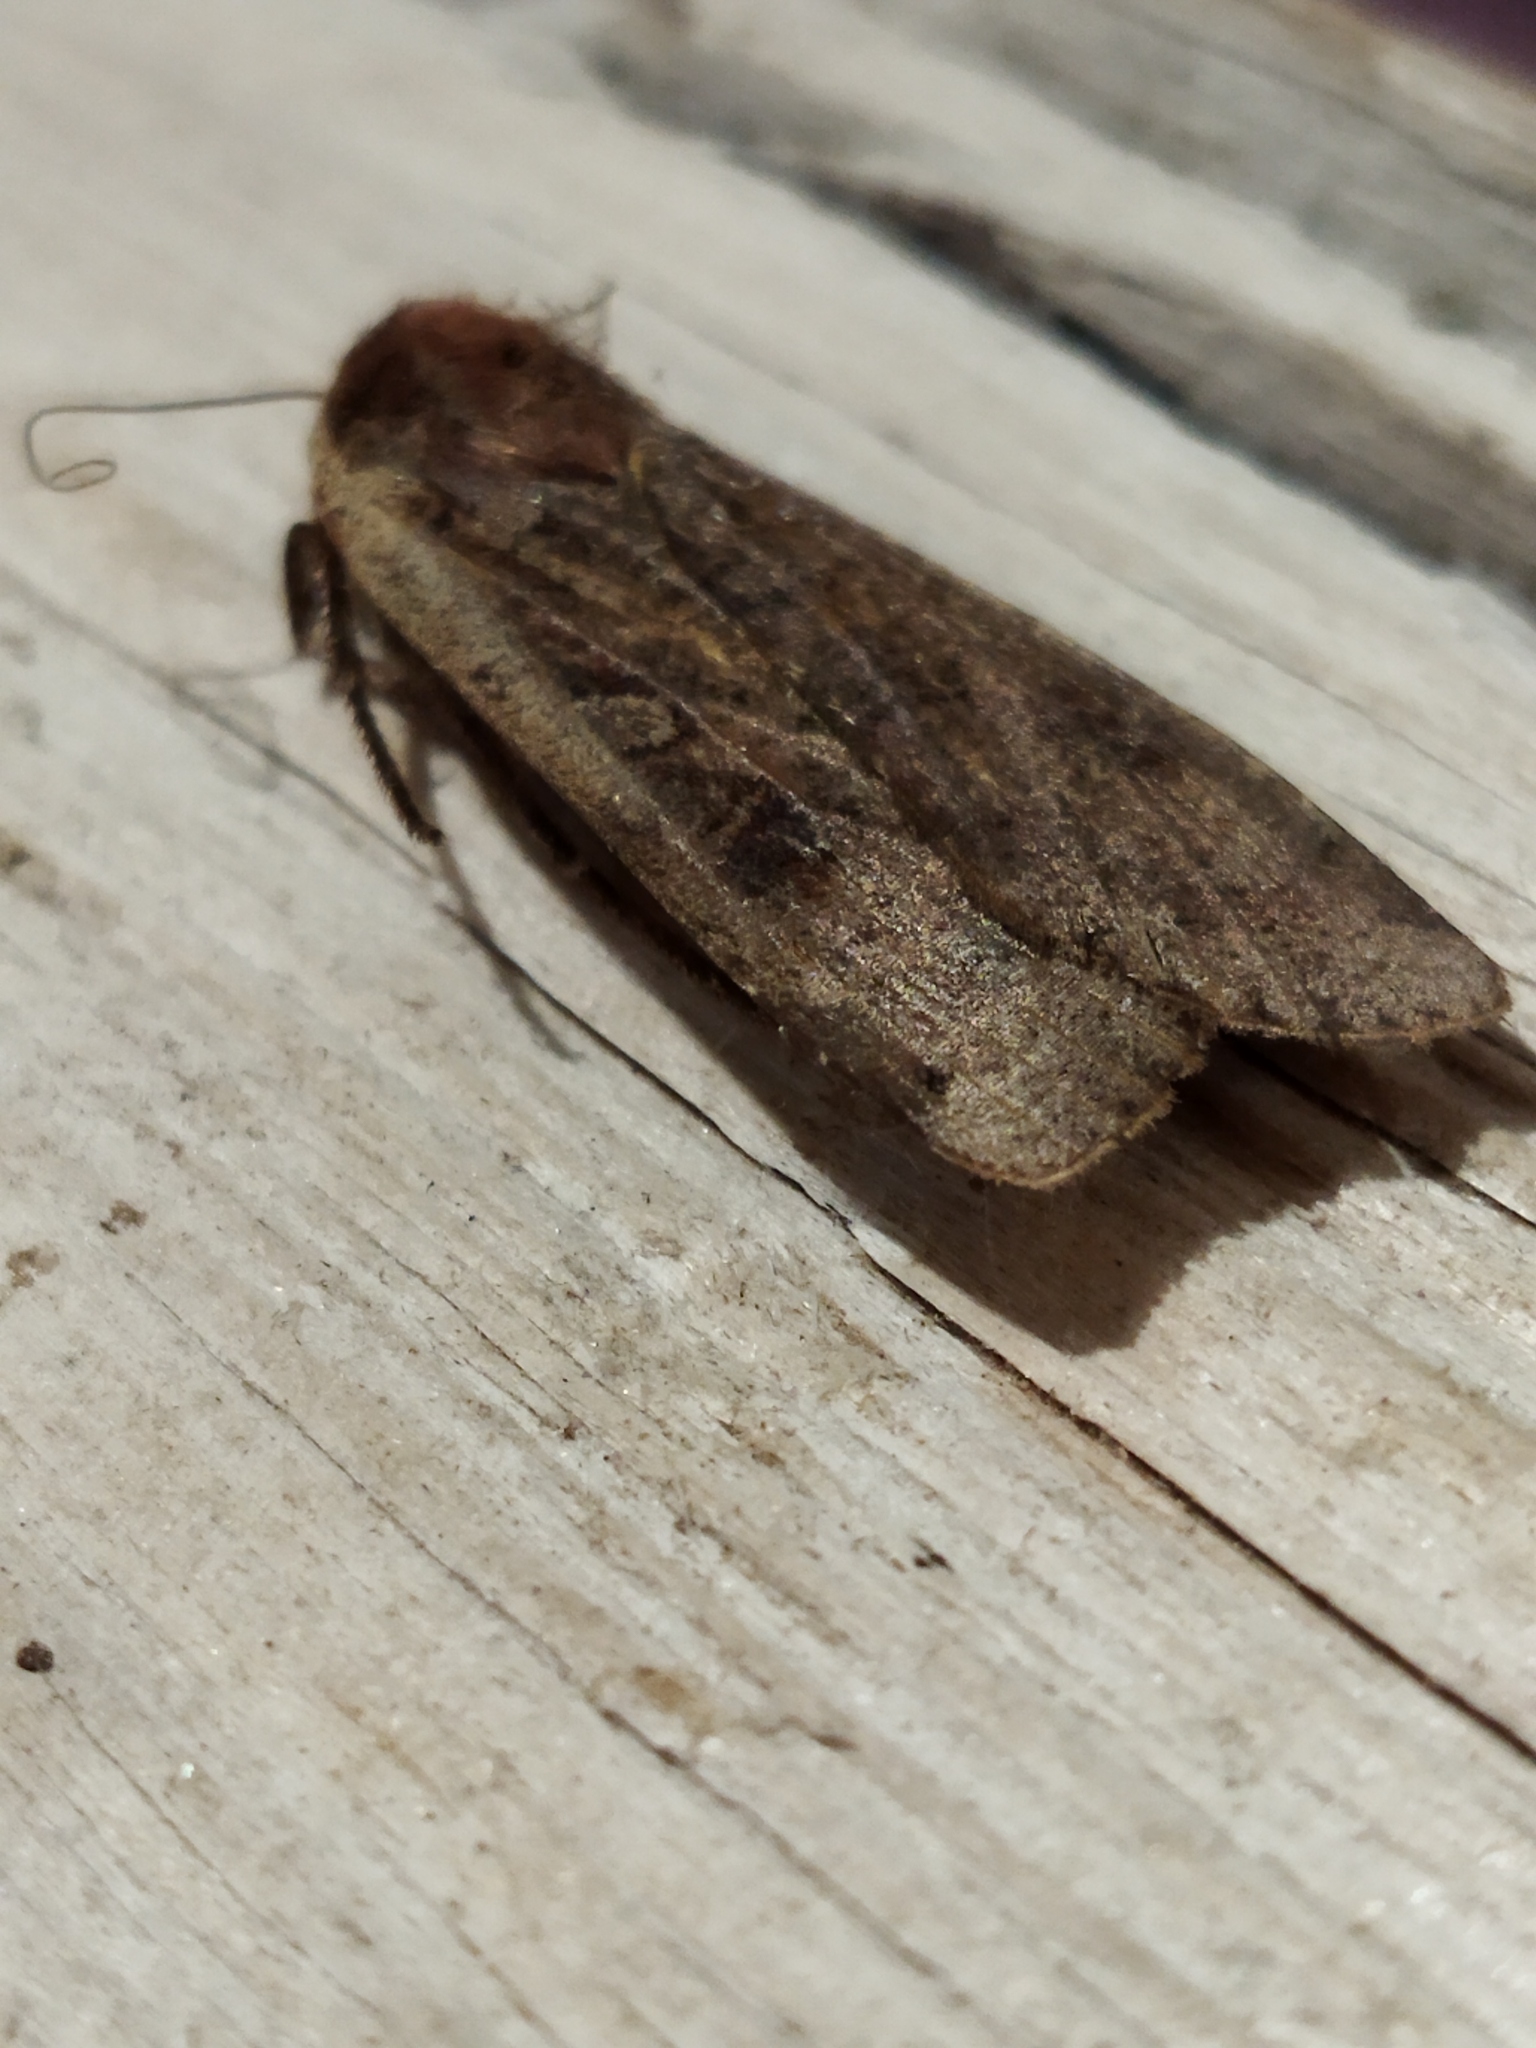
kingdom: Animalia
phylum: Arthropoda
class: Insecta
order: Lepidoptera
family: Noctuidae
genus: Noctua
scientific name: Noctua pronuba
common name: Large yellow underwing
